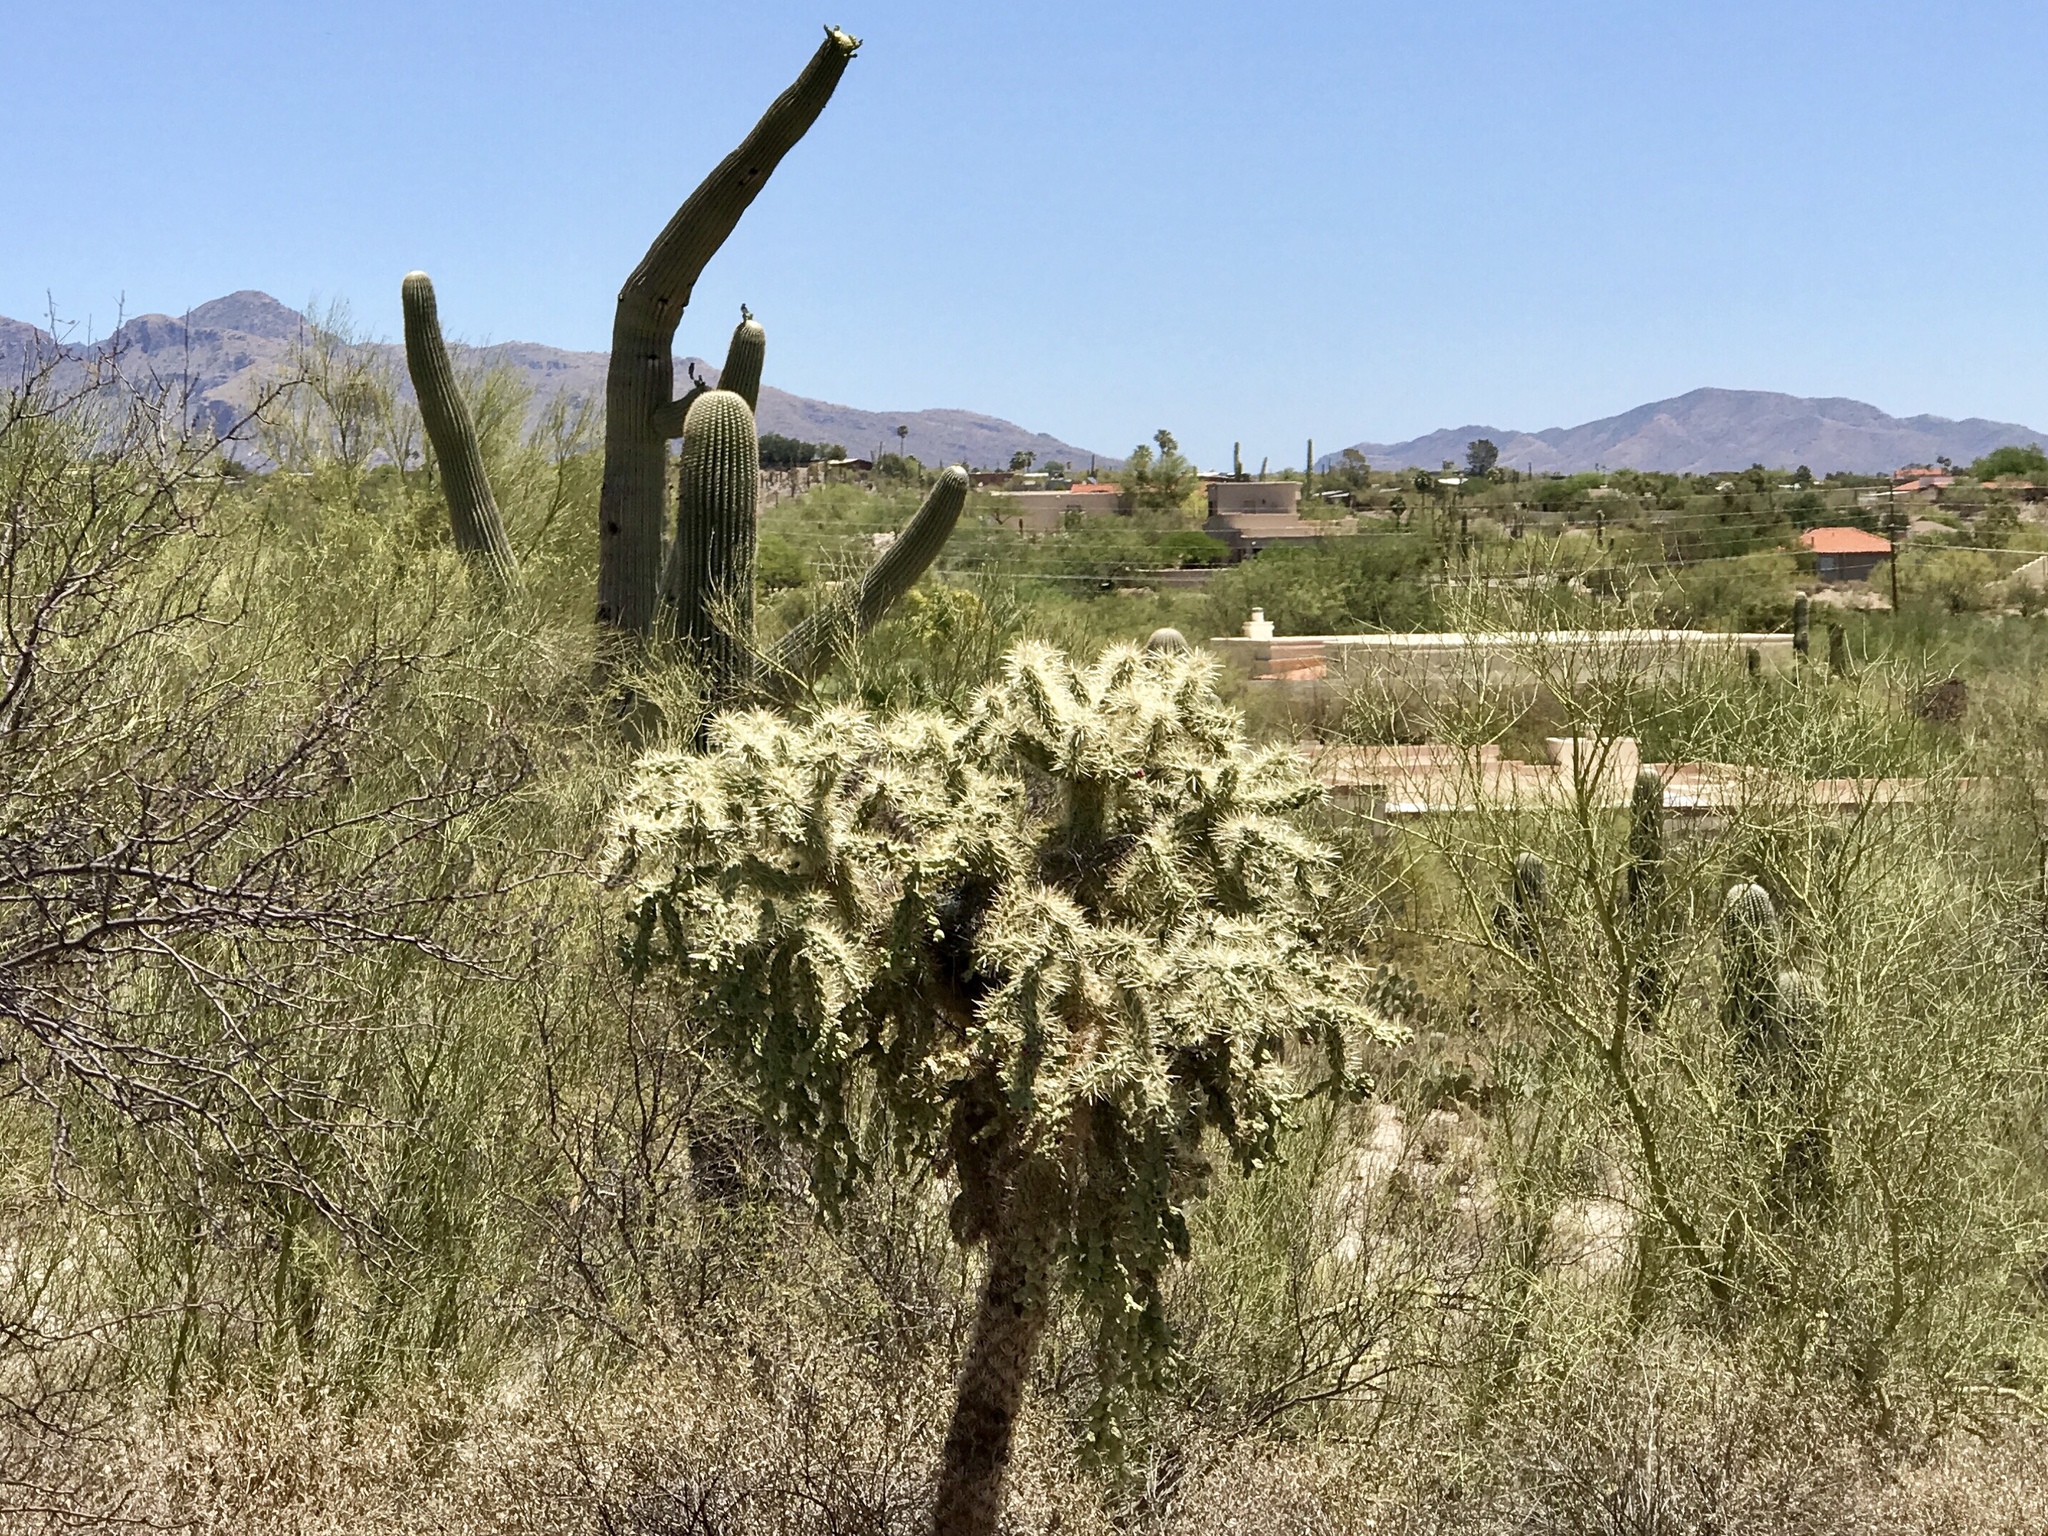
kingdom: Plantae
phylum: Tracheophyta
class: Magnoliopsida
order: Caryophyllales
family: Cactaceae
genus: Cylindropuntia
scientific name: Cylindropuntia fulgida
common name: Jumping cholla
